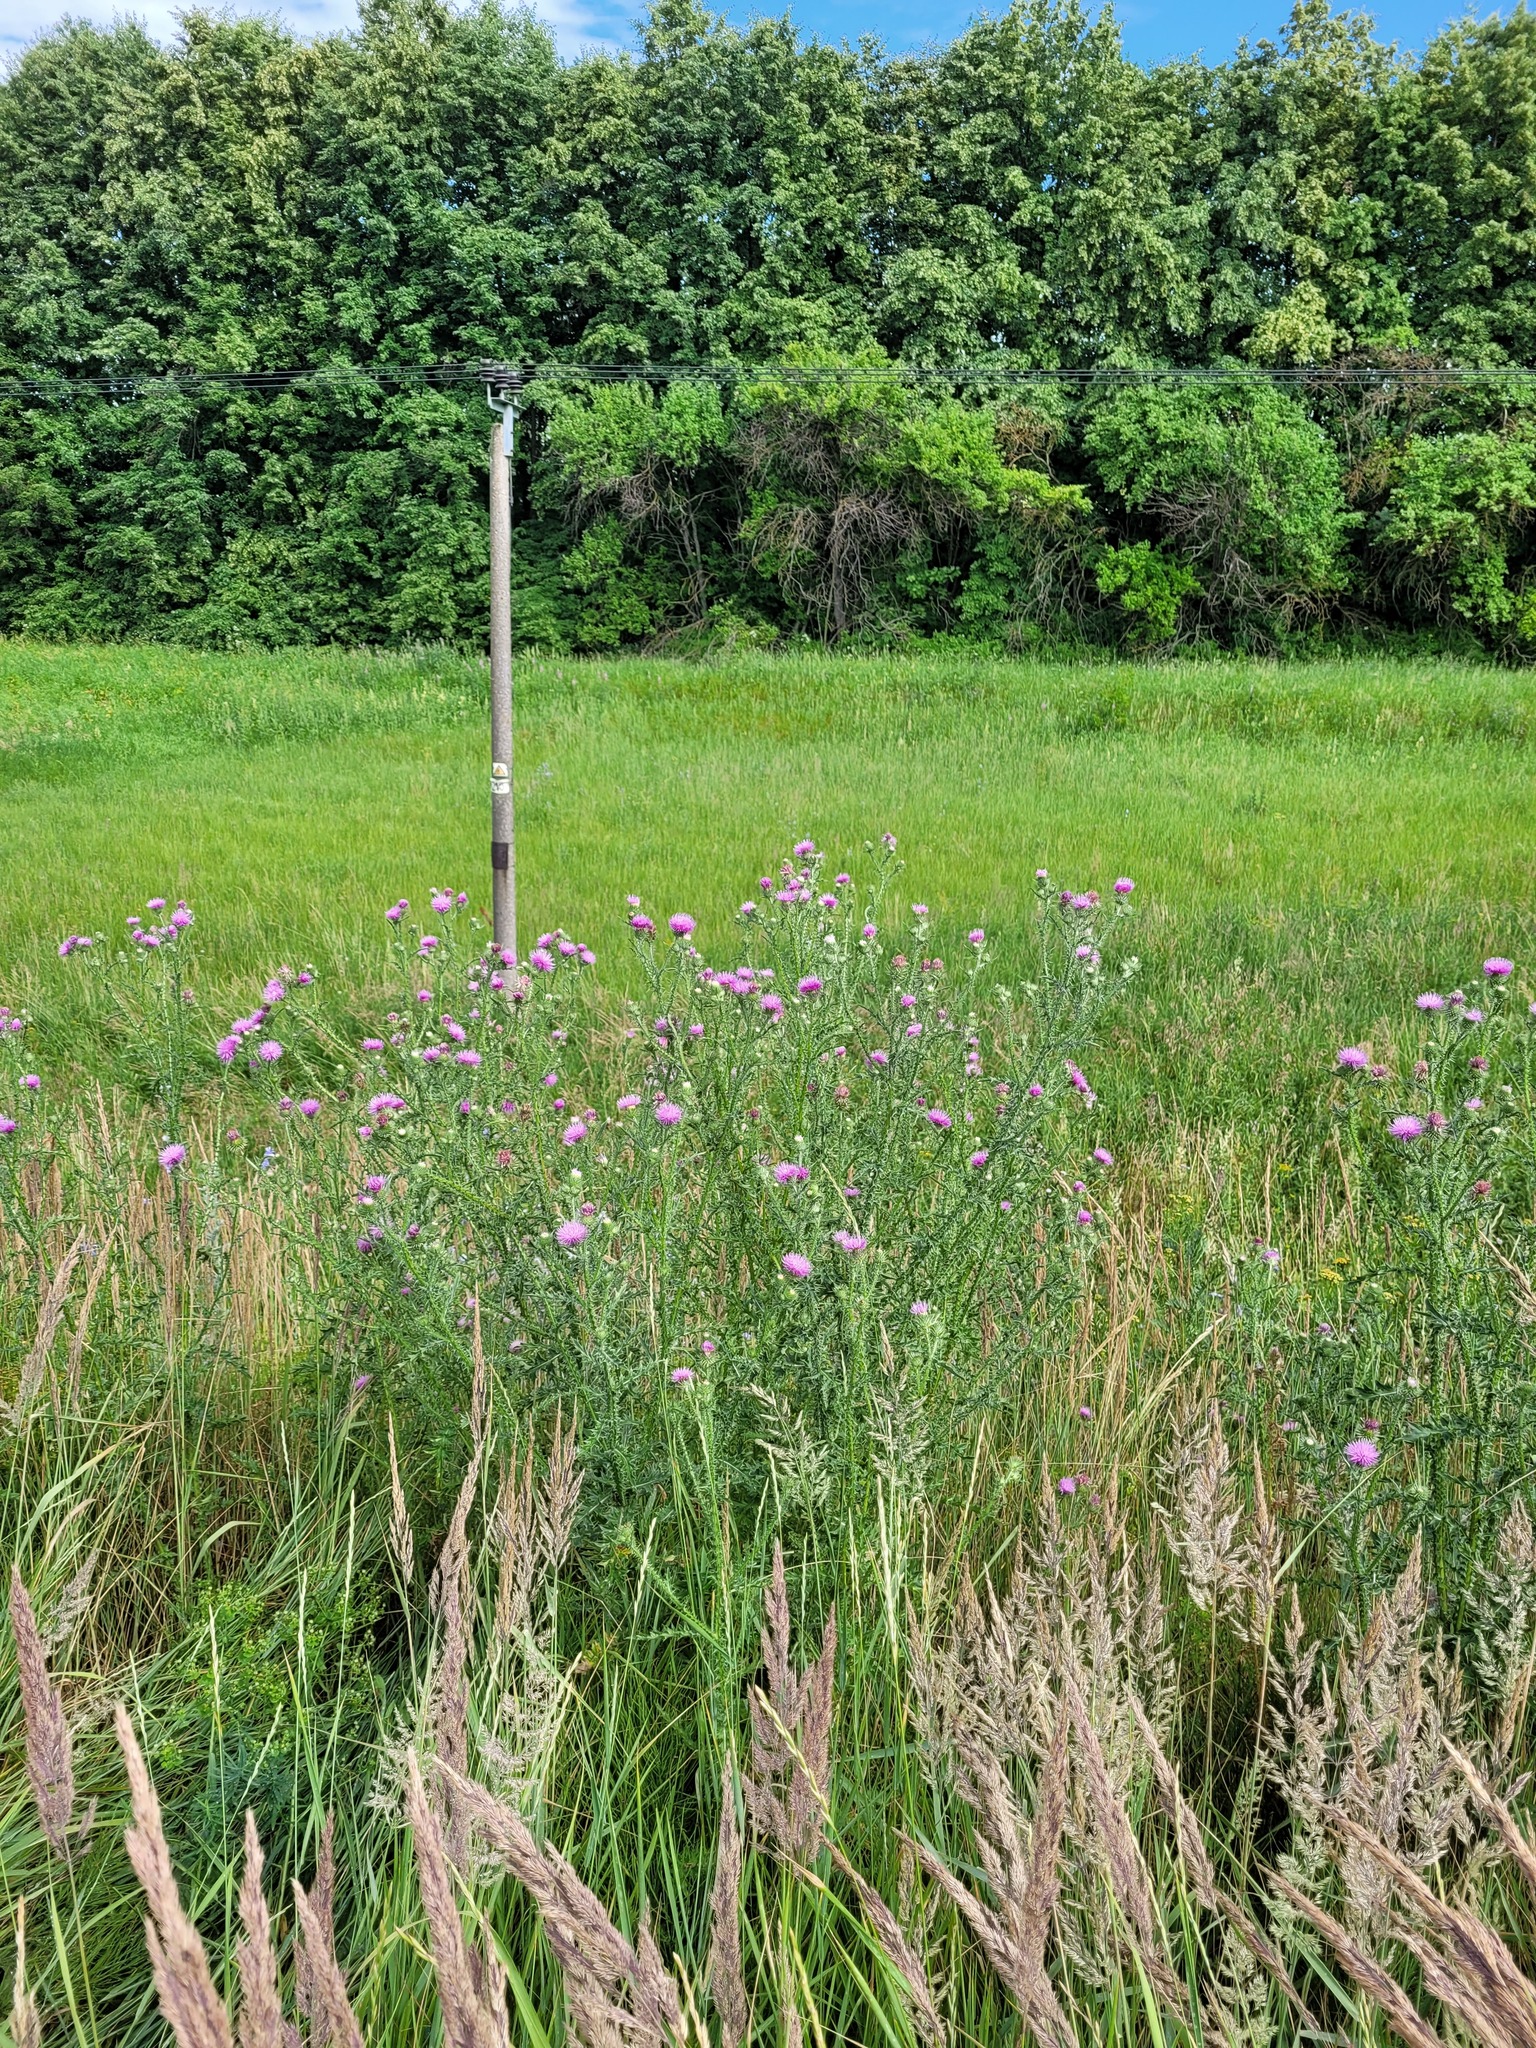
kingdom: Plantae
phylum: Tracheophyta
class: Magnoliopsida
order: Asterales
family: Asteraceae
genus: Carduus
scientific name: Carduus acanthoides
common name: Plumeless thistle
